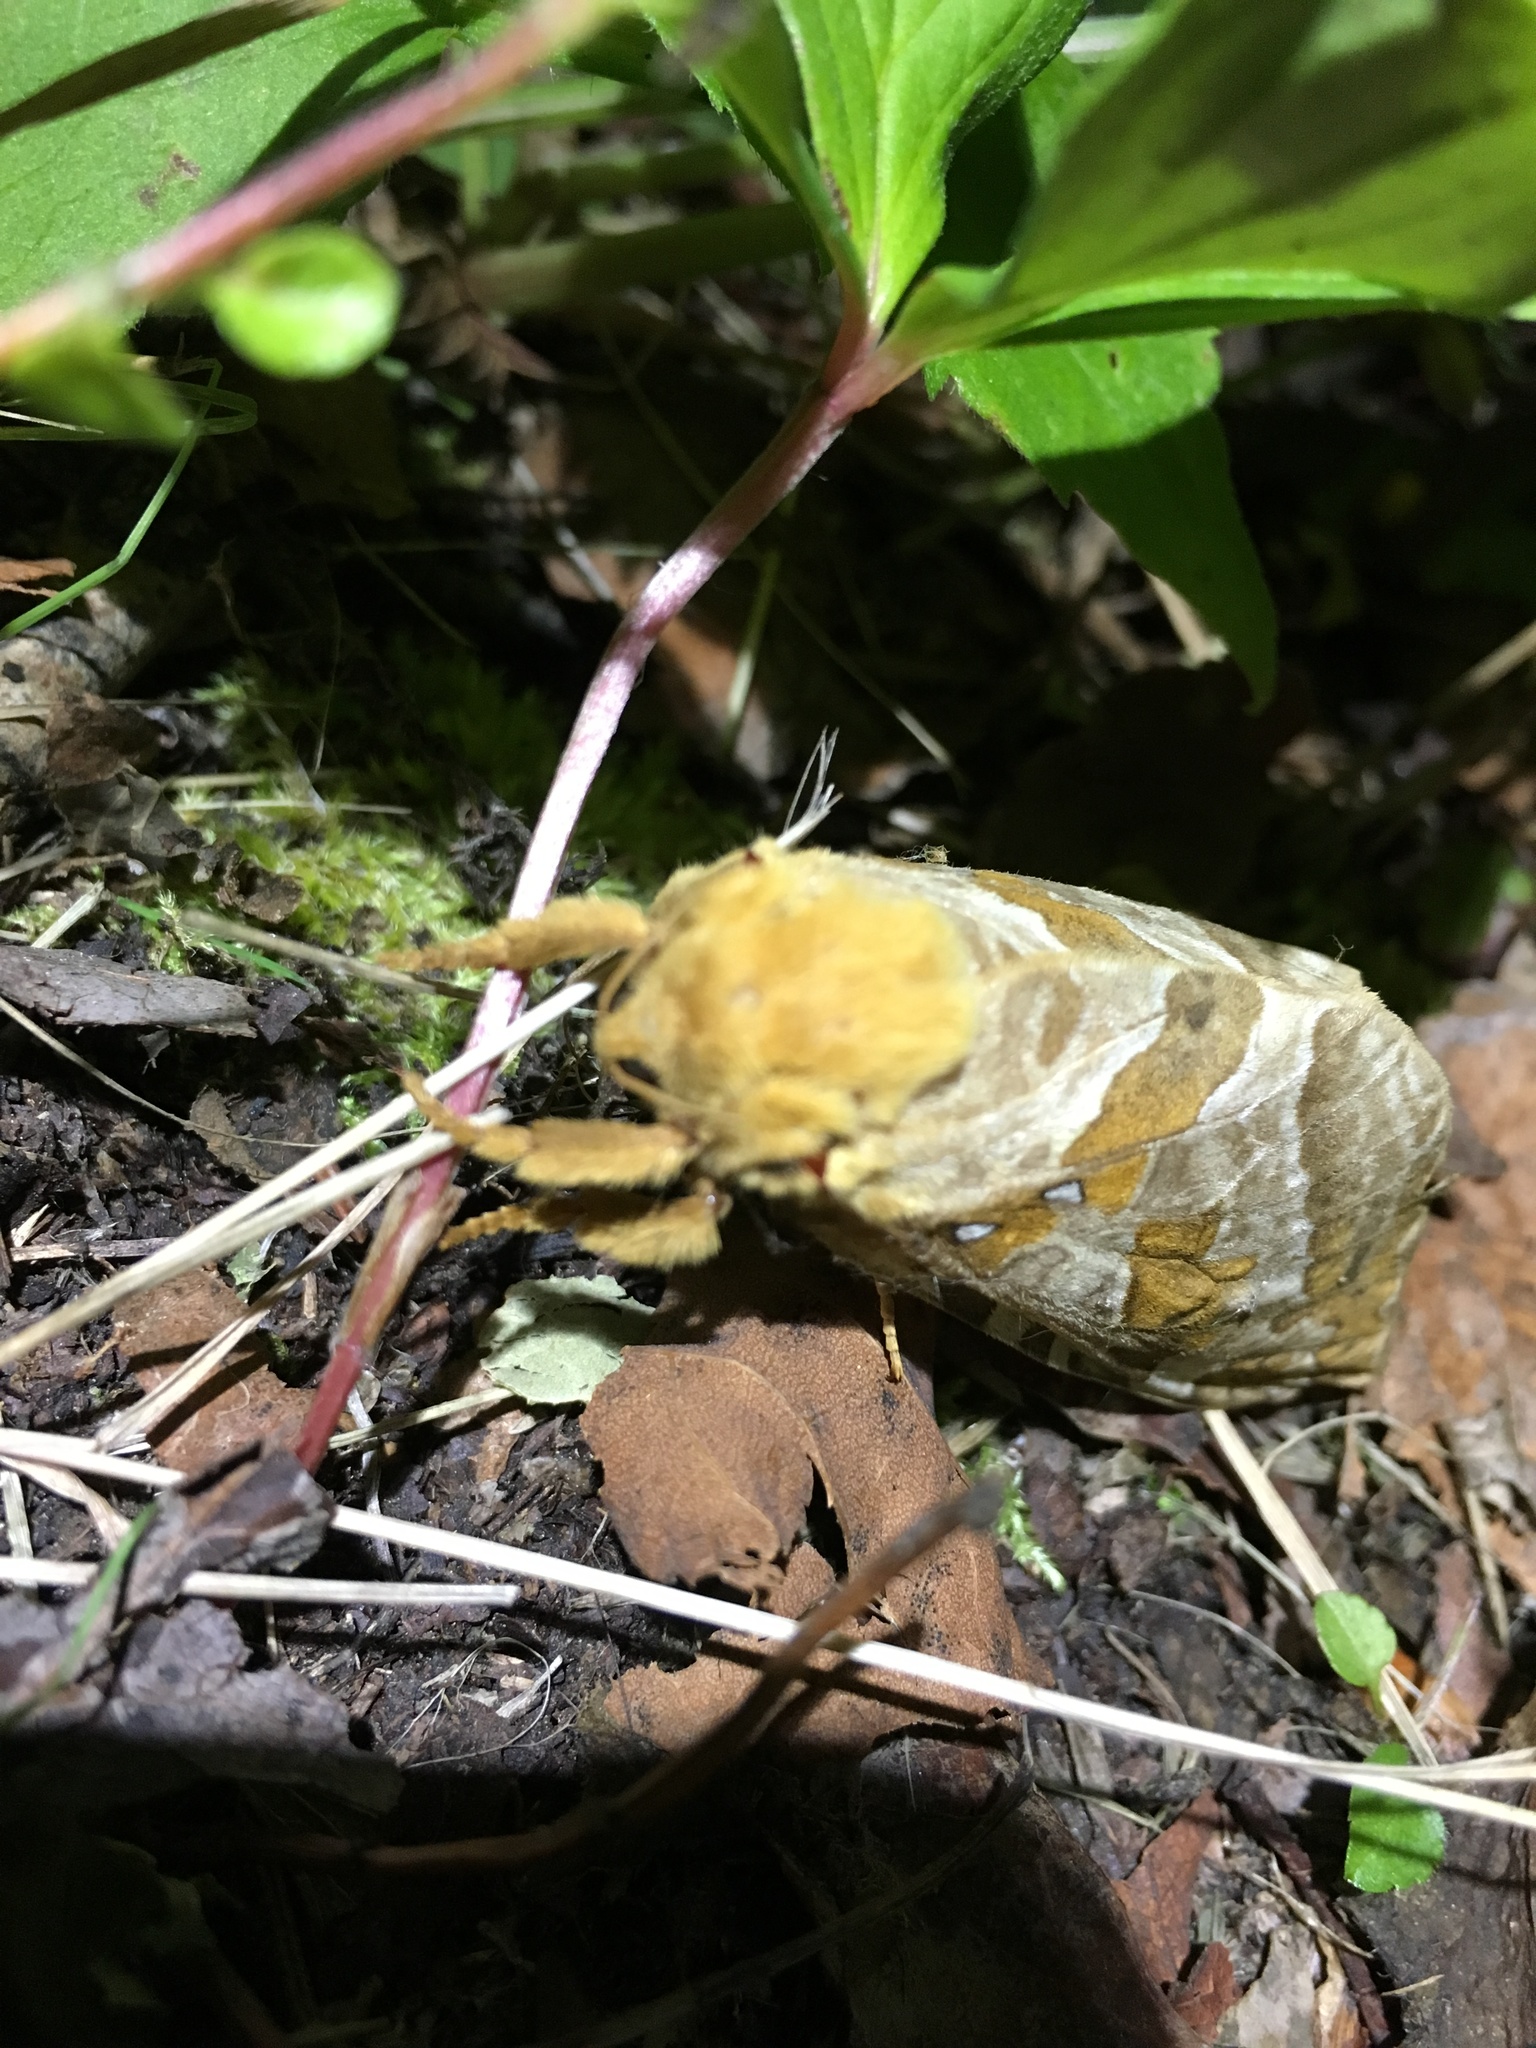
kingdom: Animalia
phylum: Arthropoda
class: Insecta
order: Lepidoptera
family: Hepialidae
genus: Sthenopis
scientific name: Sthenopis purpurascens
